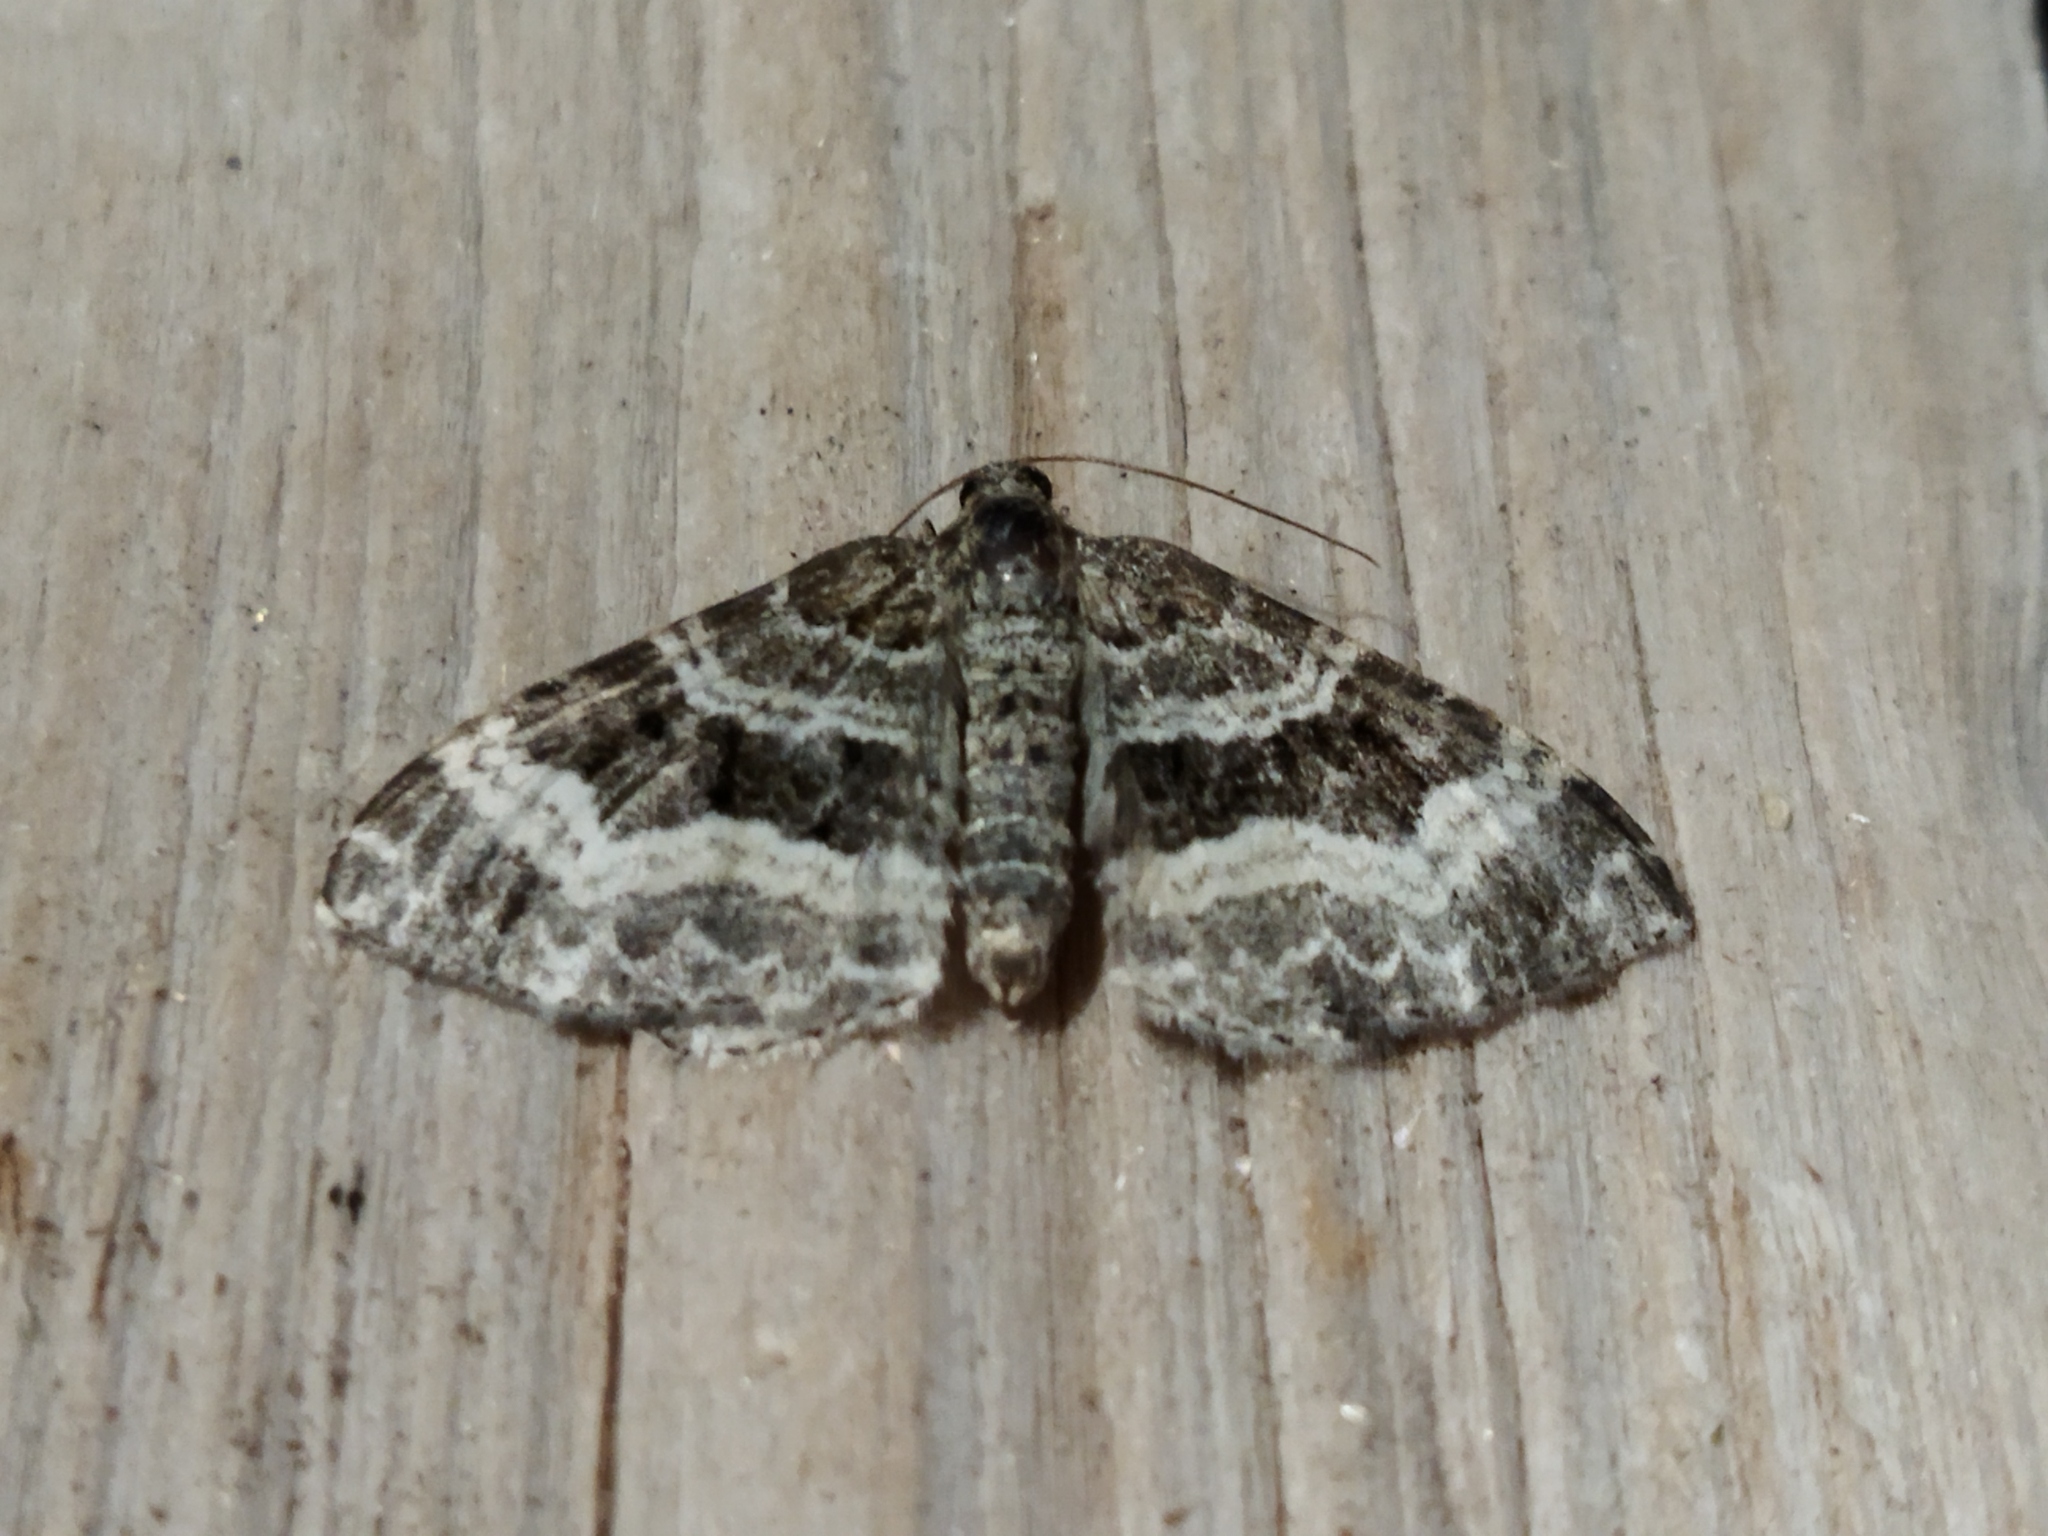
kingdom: Animalia
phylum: Arthropoda
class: Insecta
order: Lepidoptera
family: Geometridae
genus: Epirrhoe
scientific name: Epirrhoe alternata
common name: Common carpet
